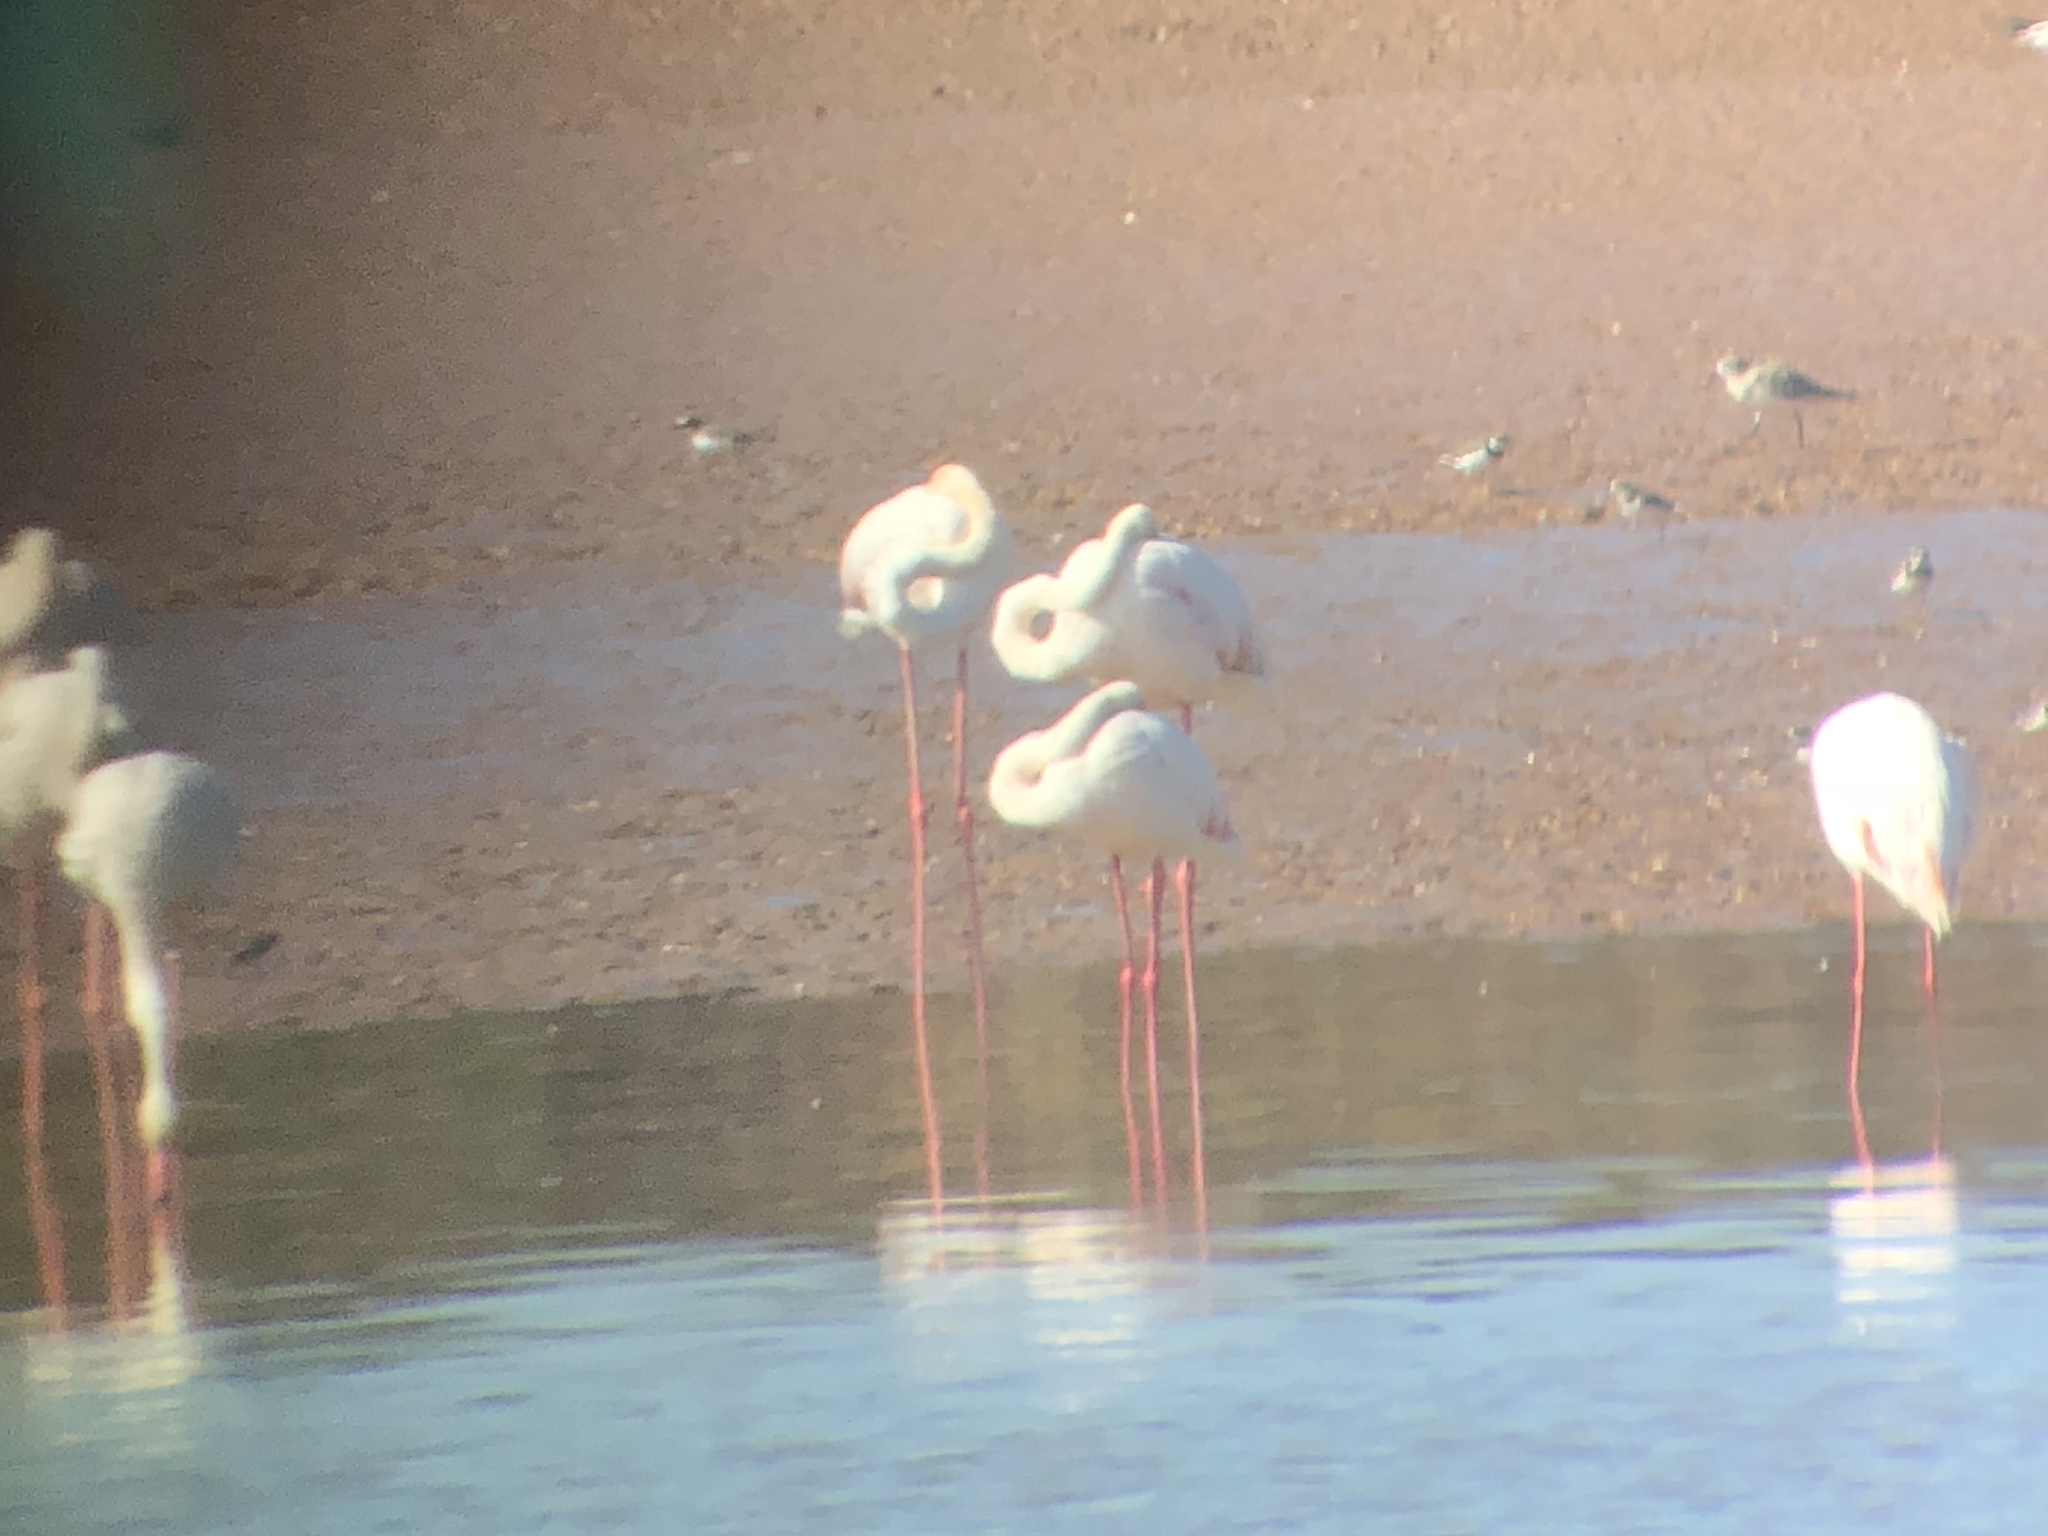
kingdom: Animalia
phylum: Chordata
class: Aves
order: Phoenicopteriformes
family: Phoenicopteridae
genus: Phoenicopterus
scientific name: Phoenicopterus roseus
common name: Greater flamingo
